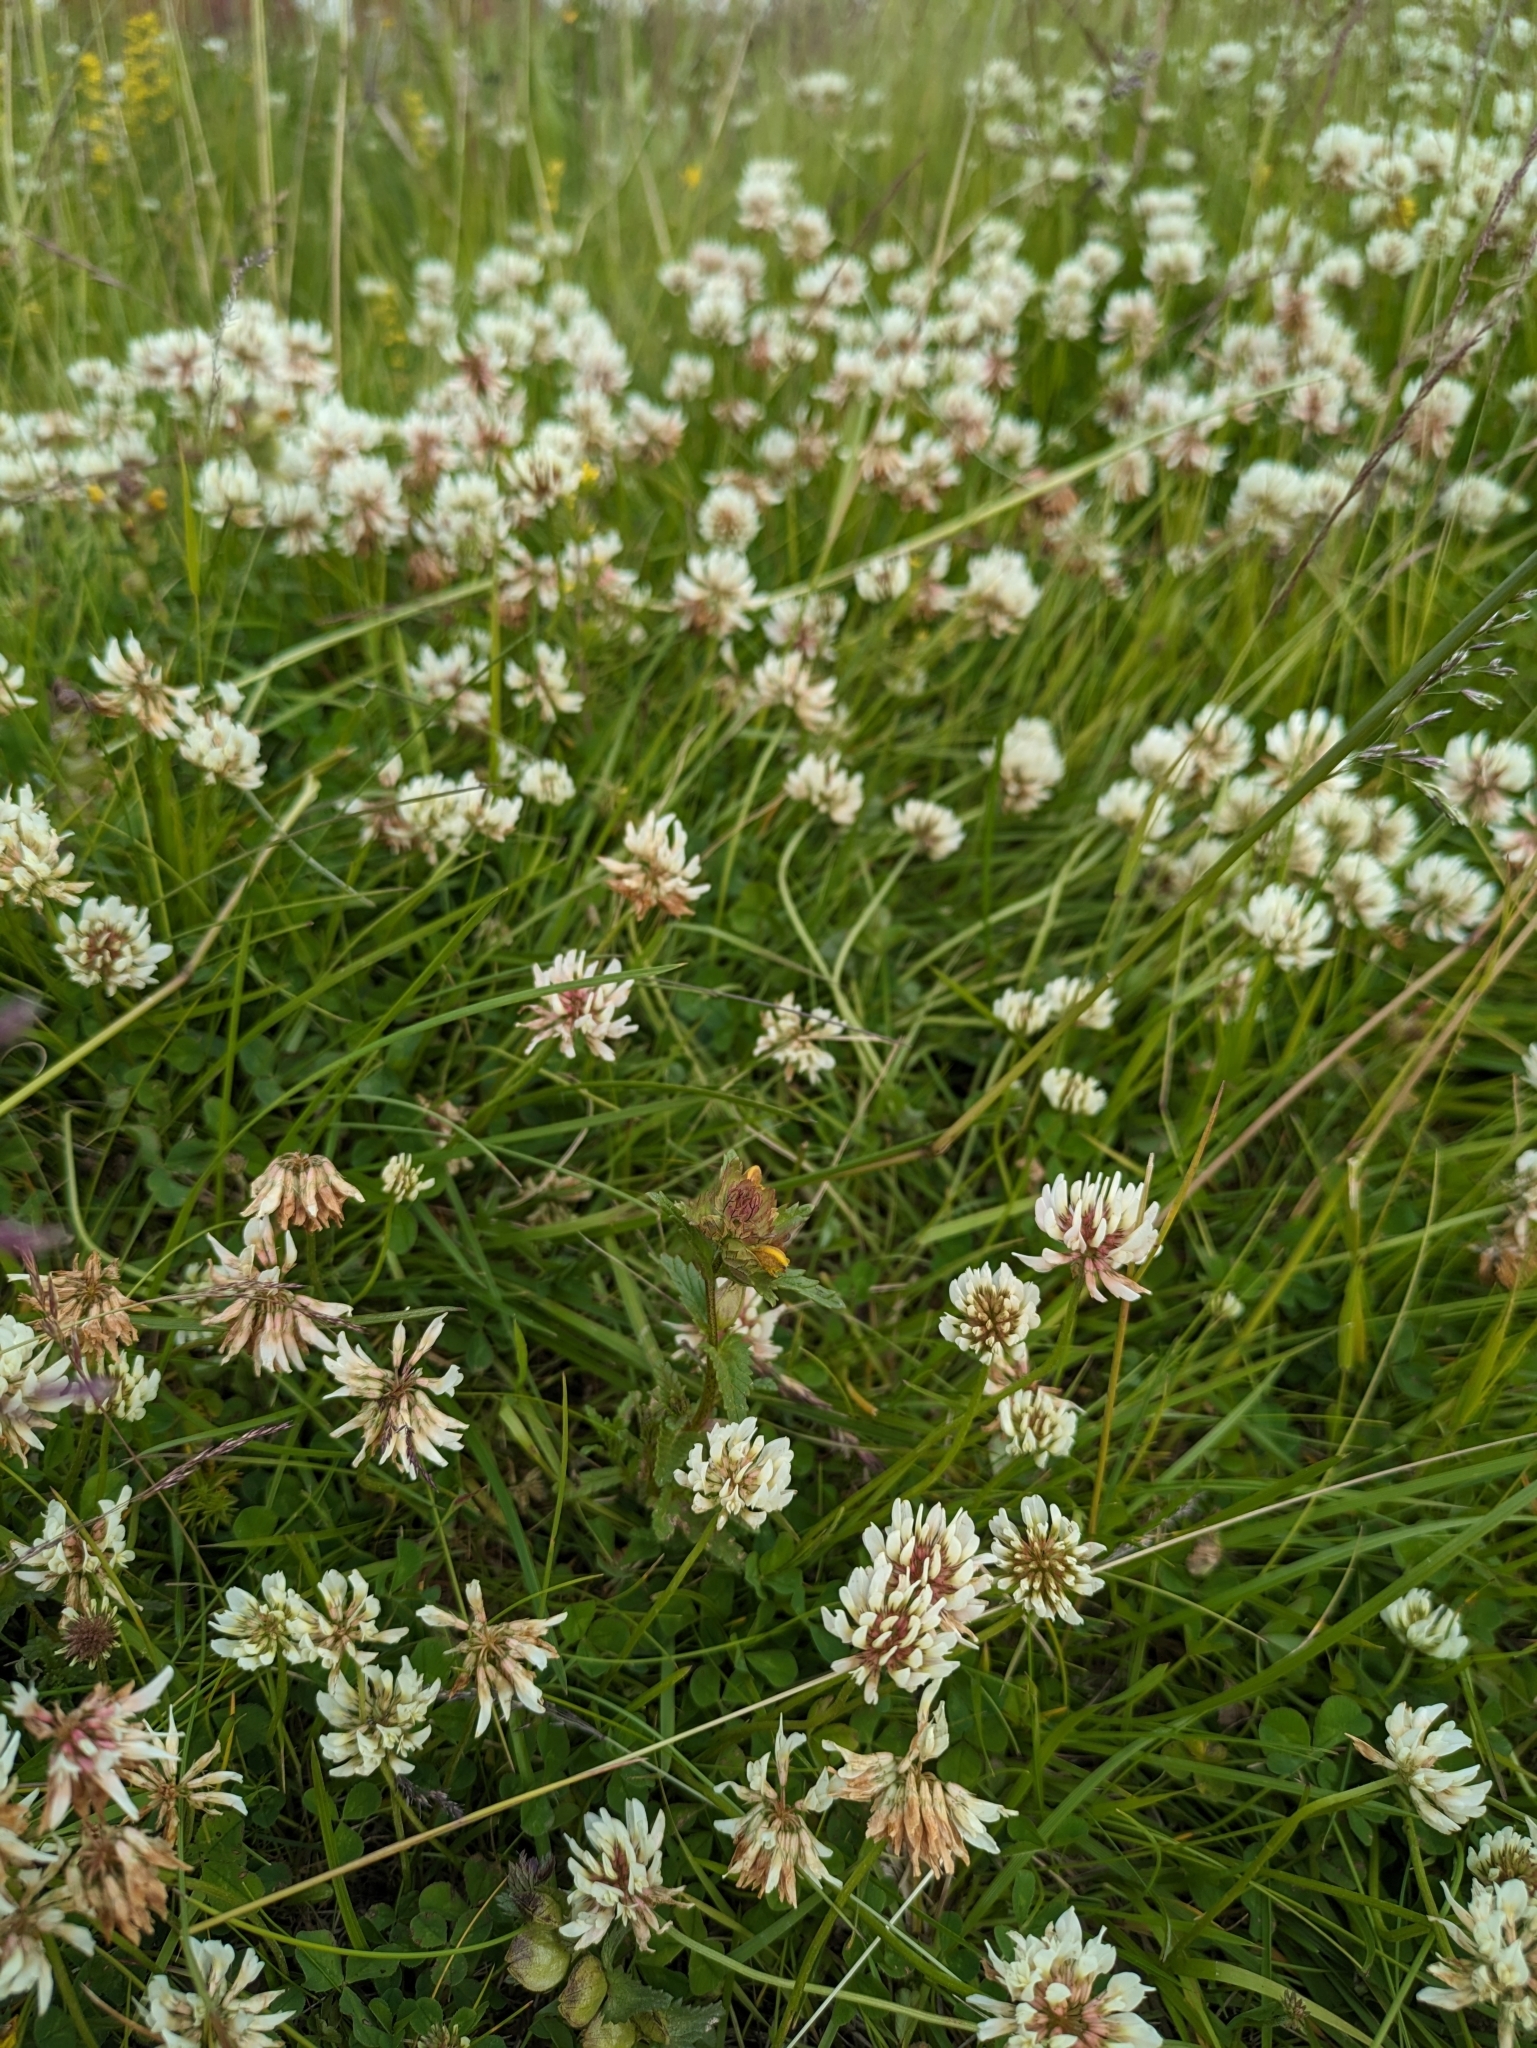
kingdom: Plantae
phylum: Tracheophyta
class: Magnoliopsida
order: Fabales
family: Fabaceae
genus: Trifolium
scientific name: Trifolium repens
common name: White clover
